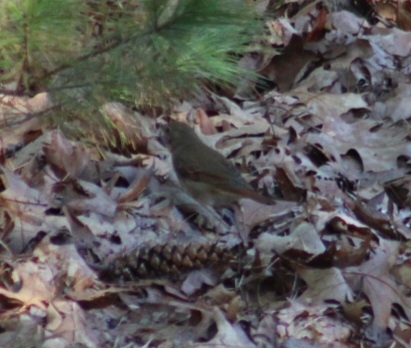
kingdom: Animalia
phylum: Chordata
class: Aves
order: Passeriformes
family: Turdidae
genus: Catharus
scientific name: Catharus guttatus
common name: Hermit thrush
